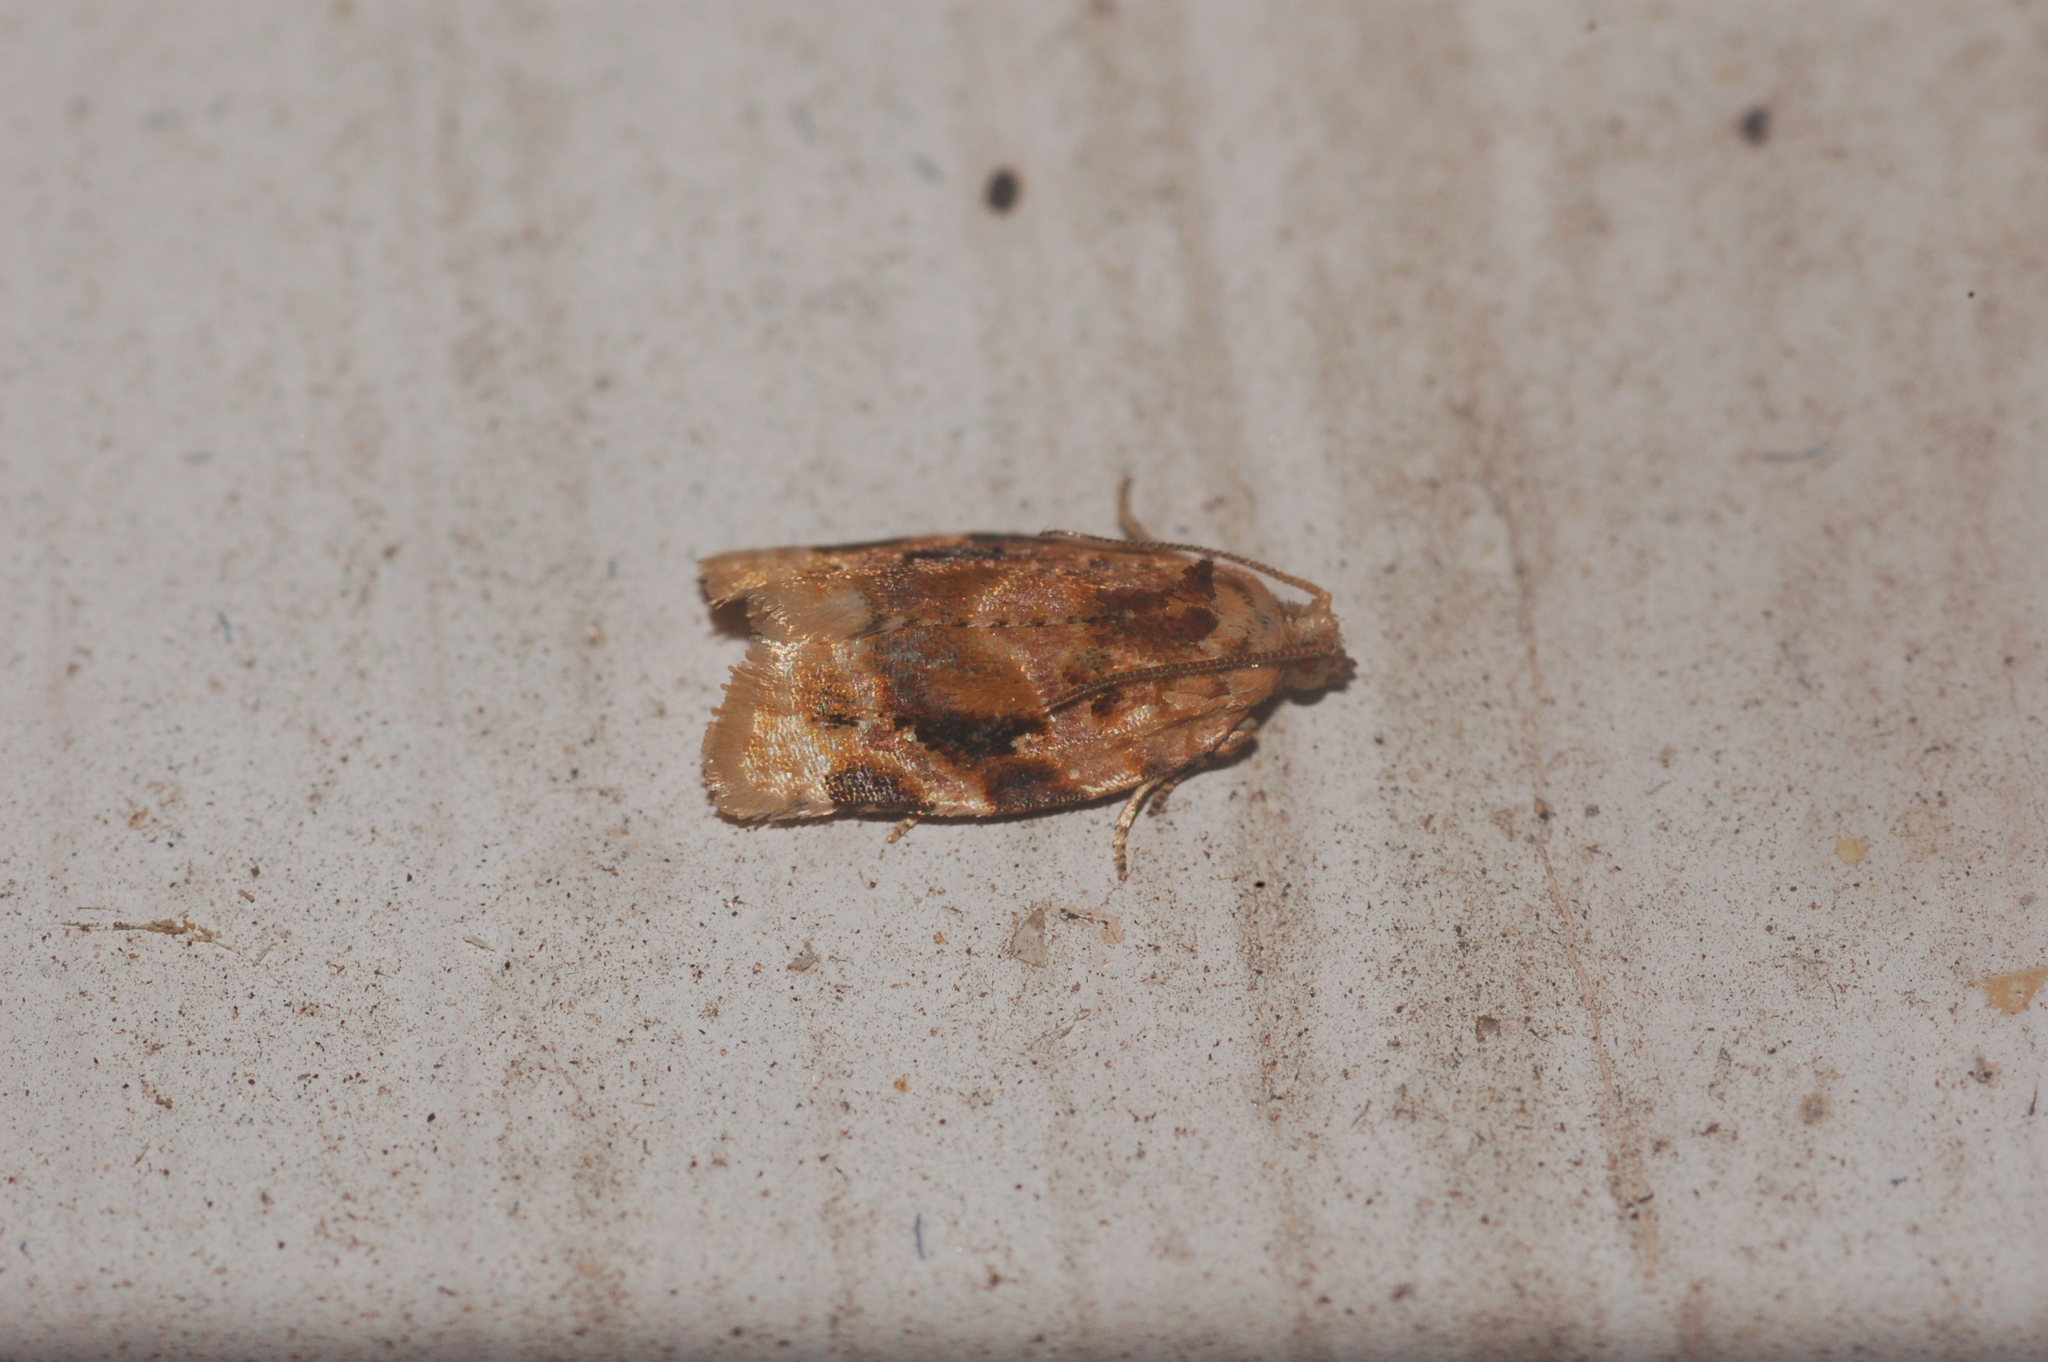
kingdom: Animalia
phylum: Arthropoda
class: Insecta
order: Lepidoptera
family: Tortricidae
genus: Argyrotaenia
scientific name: Argyrotaenia velutinana
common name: Red-banded leafroller moth
